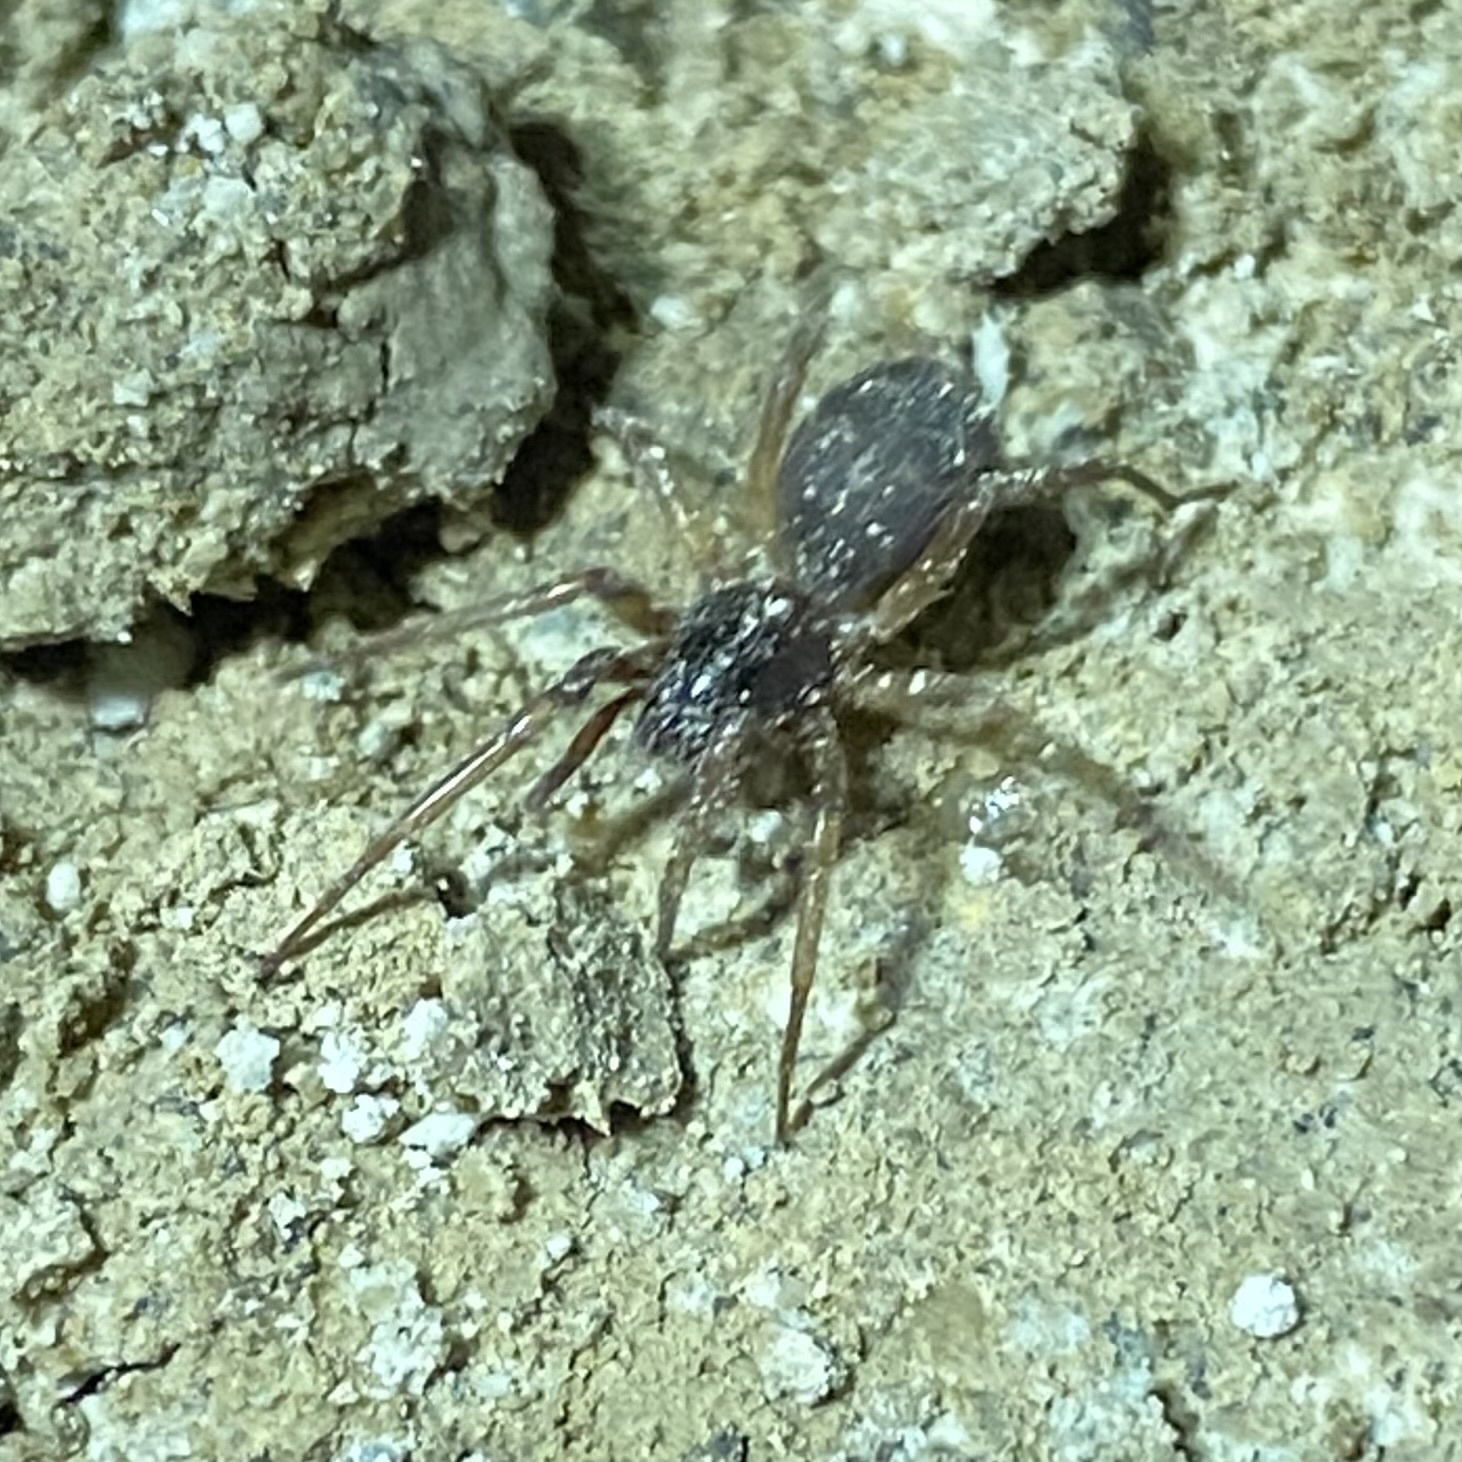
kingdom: Animalia
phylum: Arthropoda
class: Arachnida
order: Araneae
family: Corinnidae
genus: Falconina
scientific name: Falconina gracilis
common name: Antmimic spider
